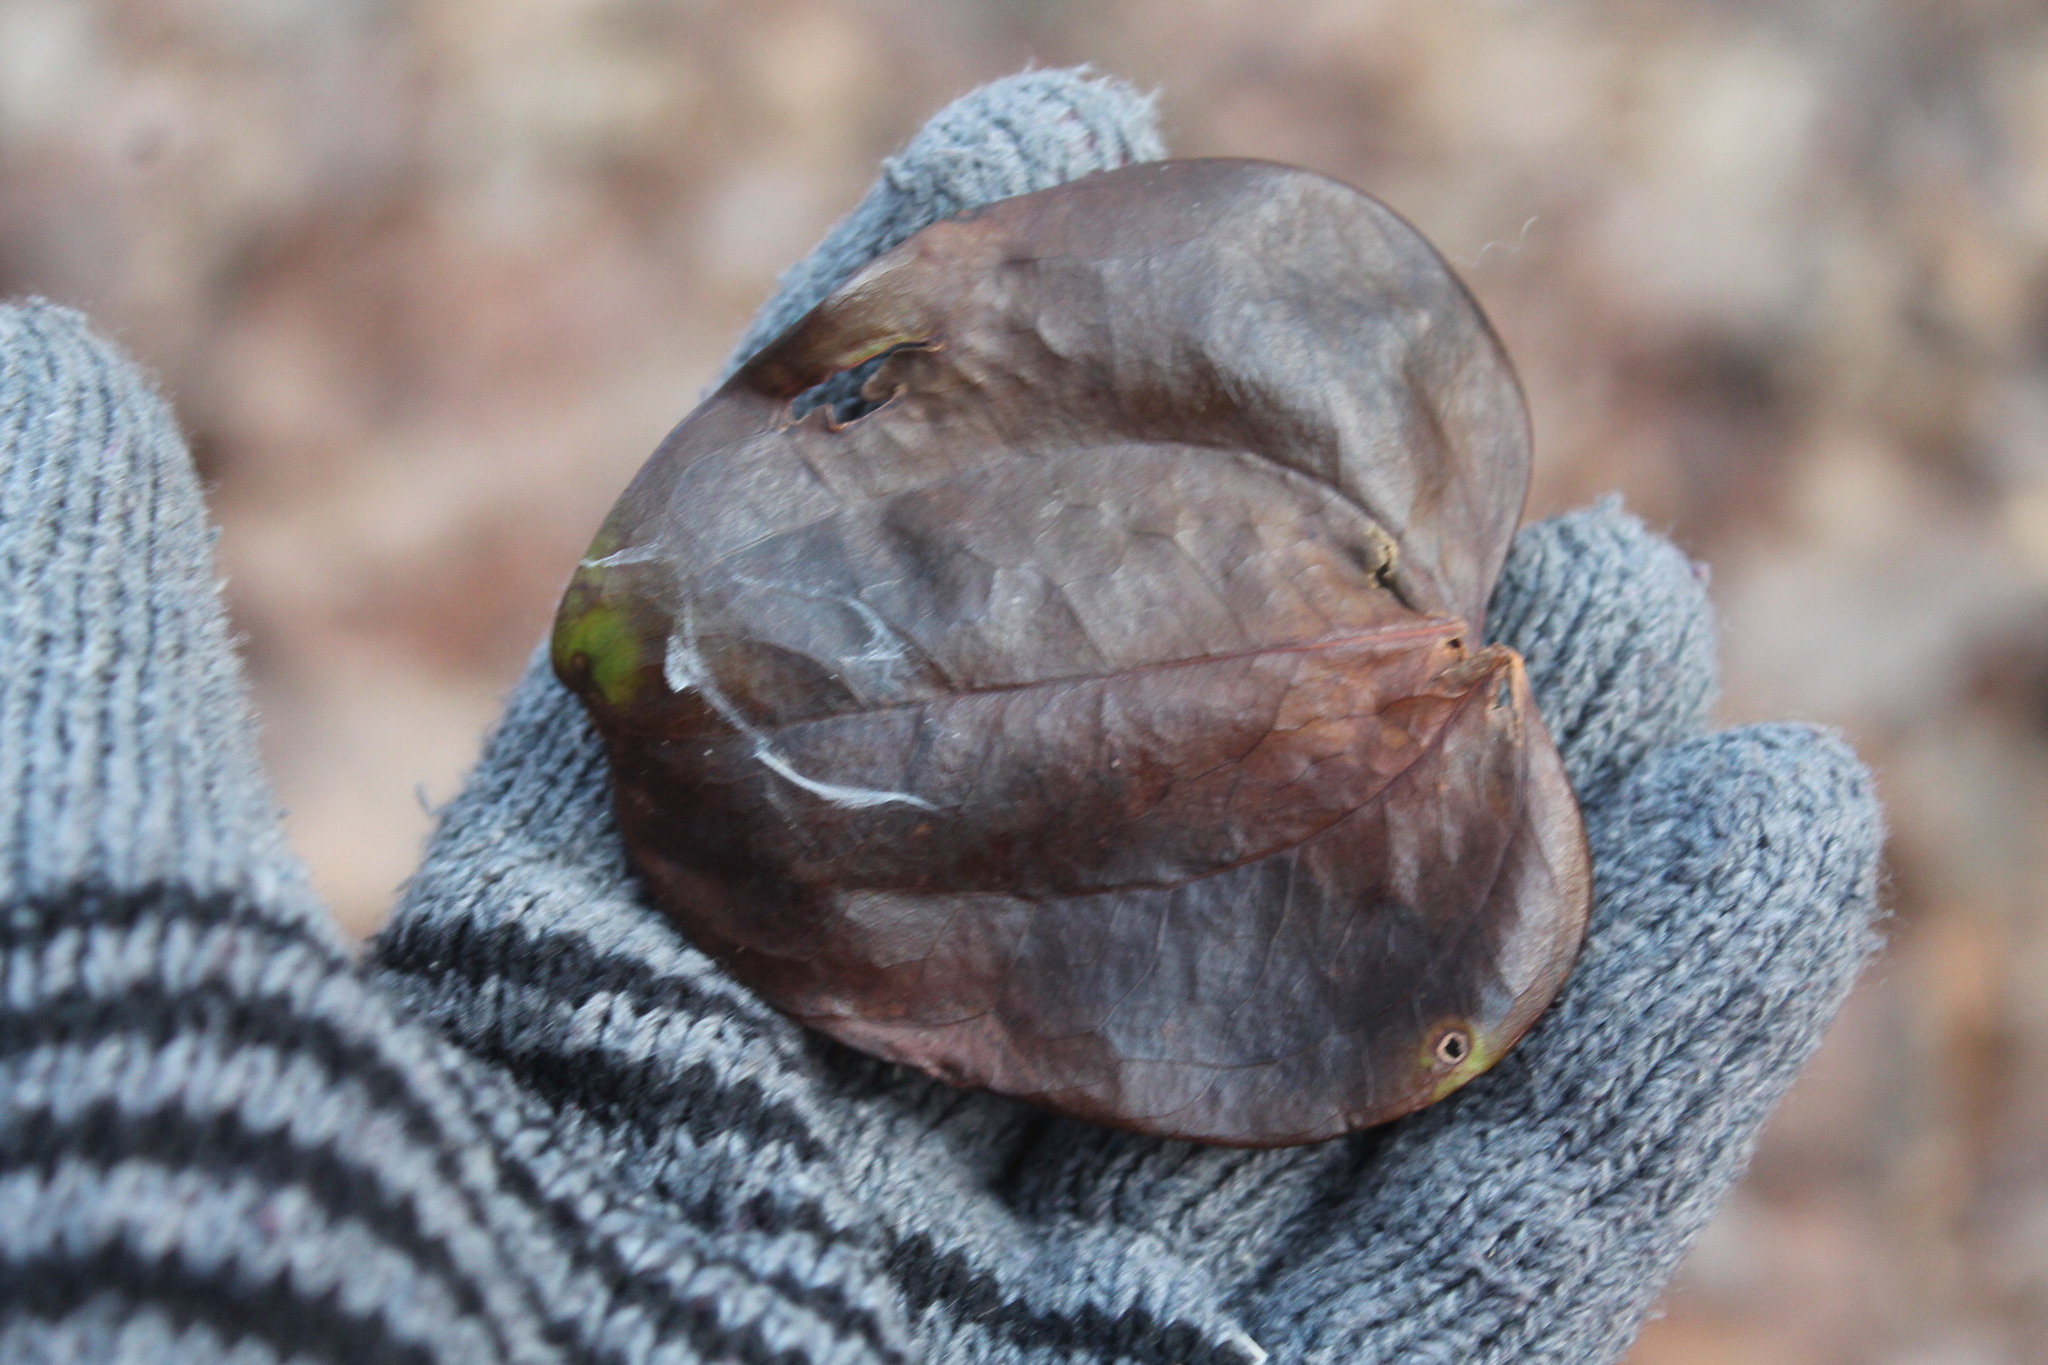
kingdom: Plantae
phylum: Tracheophyta
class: Liliopsida
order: Liliales
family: Smilacaceae
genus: Smilax
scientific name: Smilax rotundifolia
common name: Bullbriar
